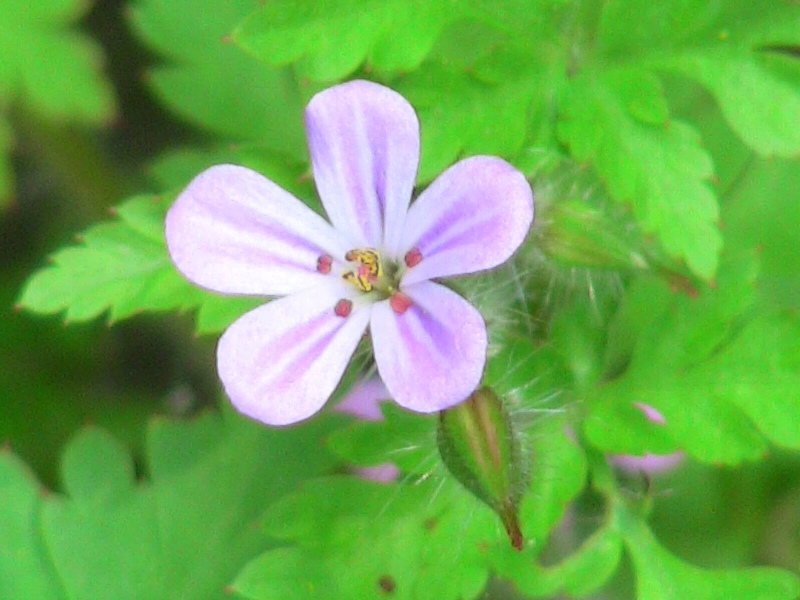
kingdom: Plantae
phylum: Tracheophyta
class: Magnoliopsida
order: Geraniales
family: Geraniaceae
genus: Geranium
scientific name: Geranium robertianum
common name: Herb-robert
